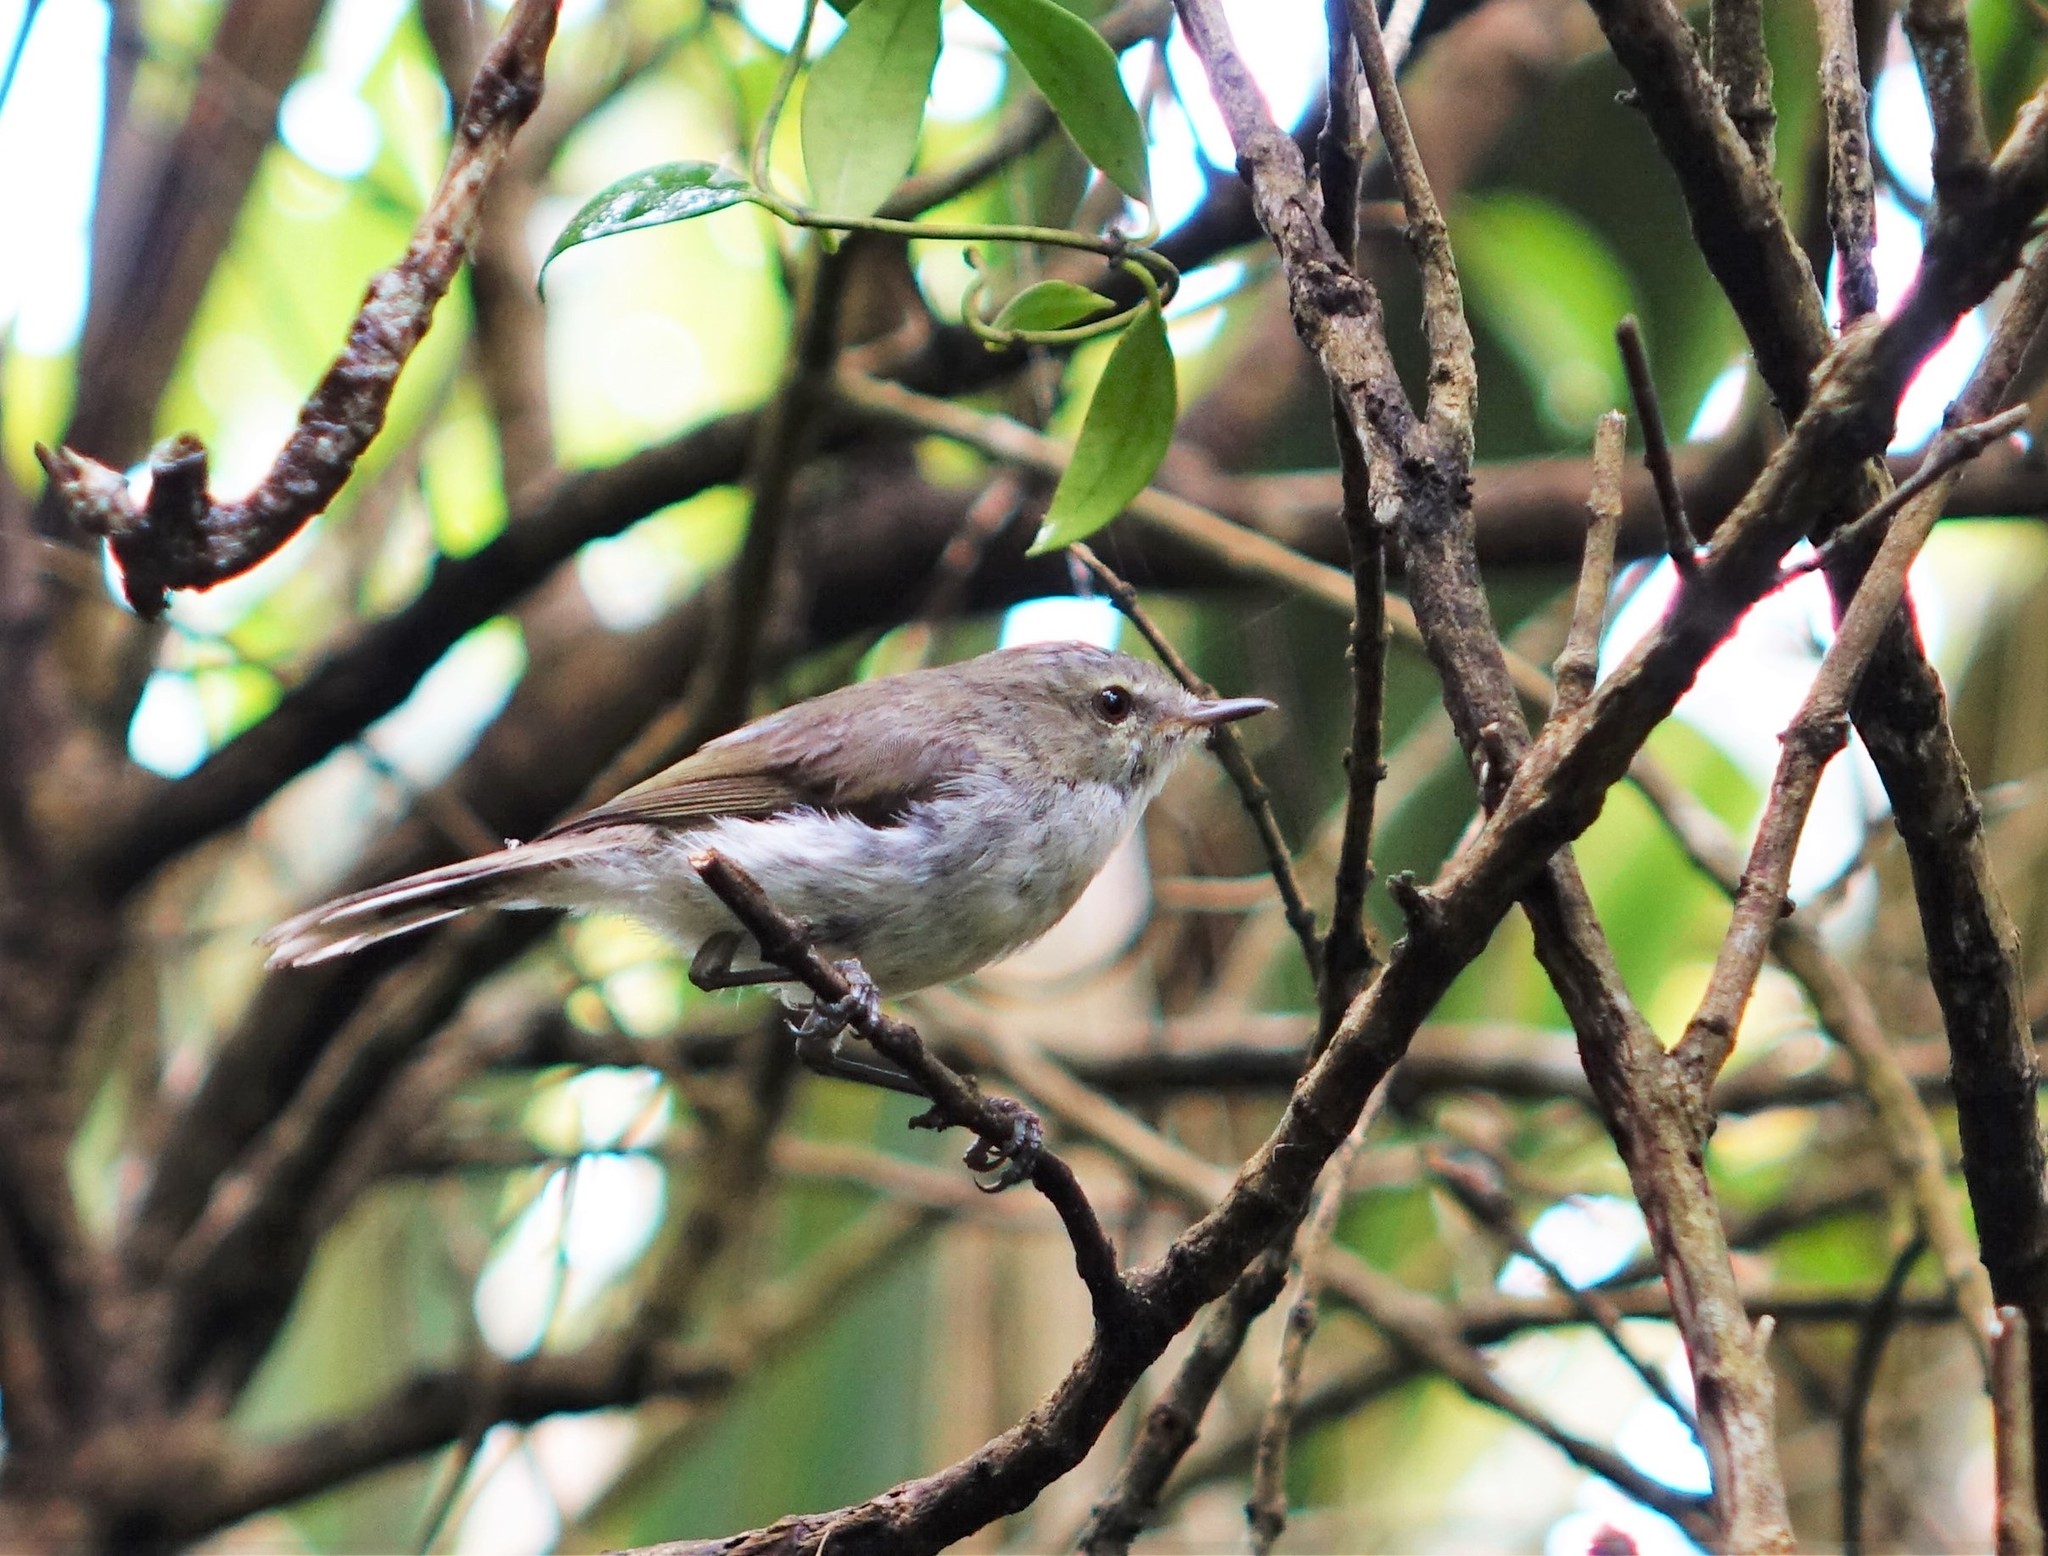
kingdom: Animalia
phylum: Chordata
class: Aves
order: Passeriformes
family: Acanthizidae
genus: Gerygone
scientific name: Gerygone igata
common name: Grey gerygone
